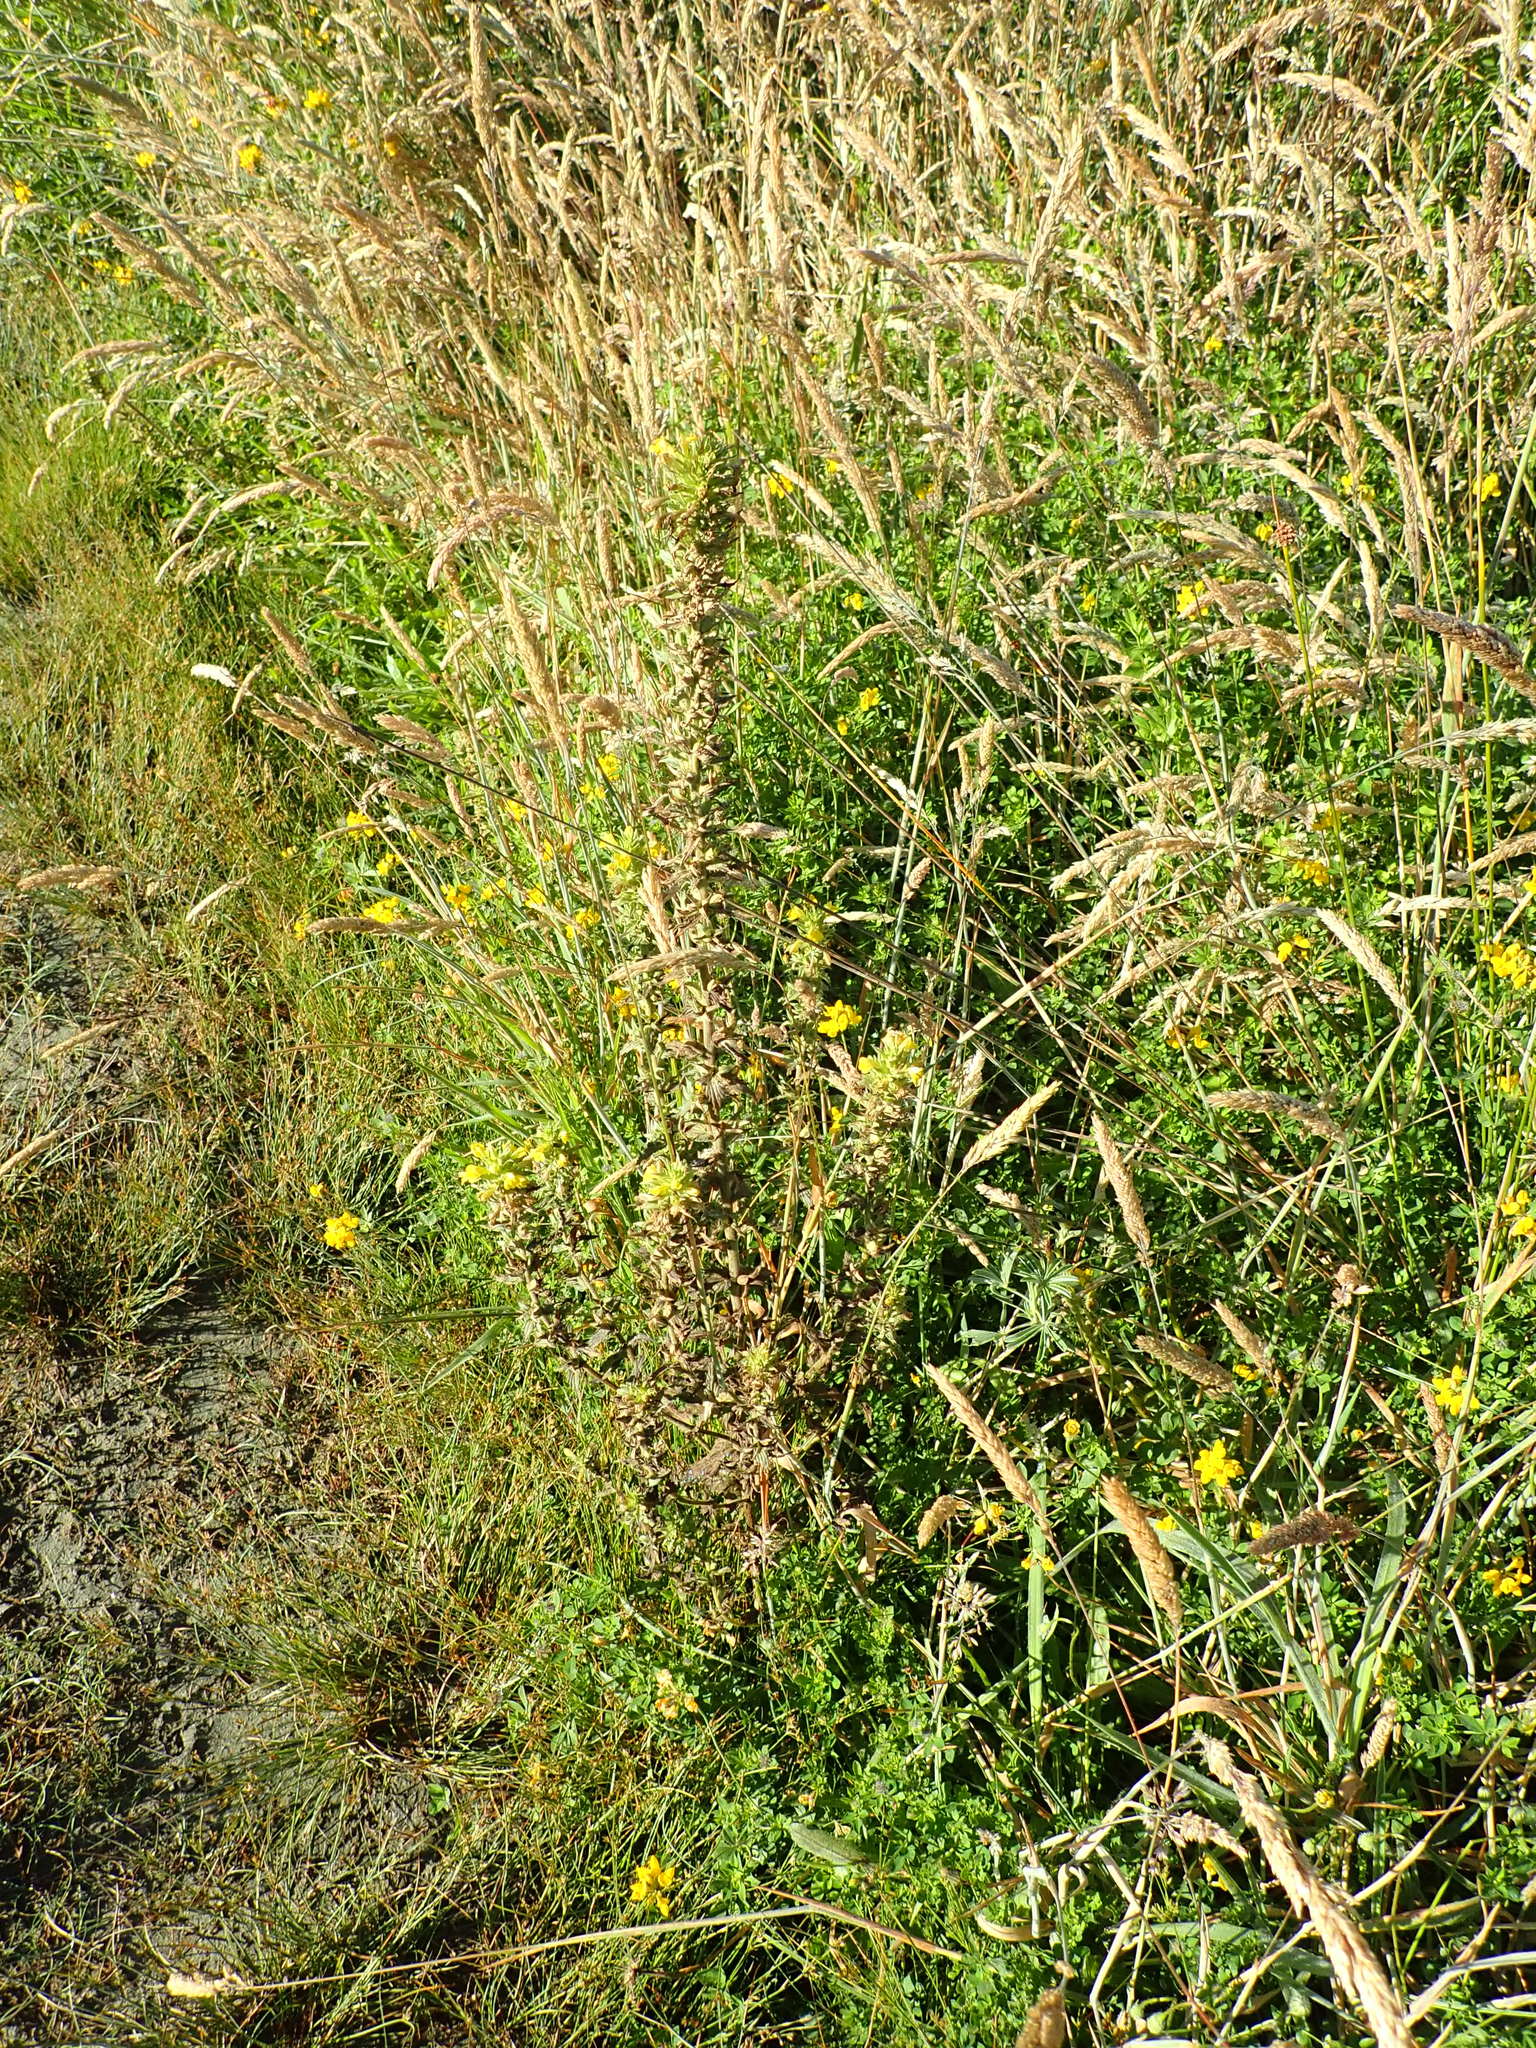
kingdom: Plantae
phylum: Tracheophyta
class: Magnoliopsida
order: Lamiales
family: Orobanchaceae
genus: Bellardia
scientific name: Bellardia viscosa
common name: Sticky parentucellia
